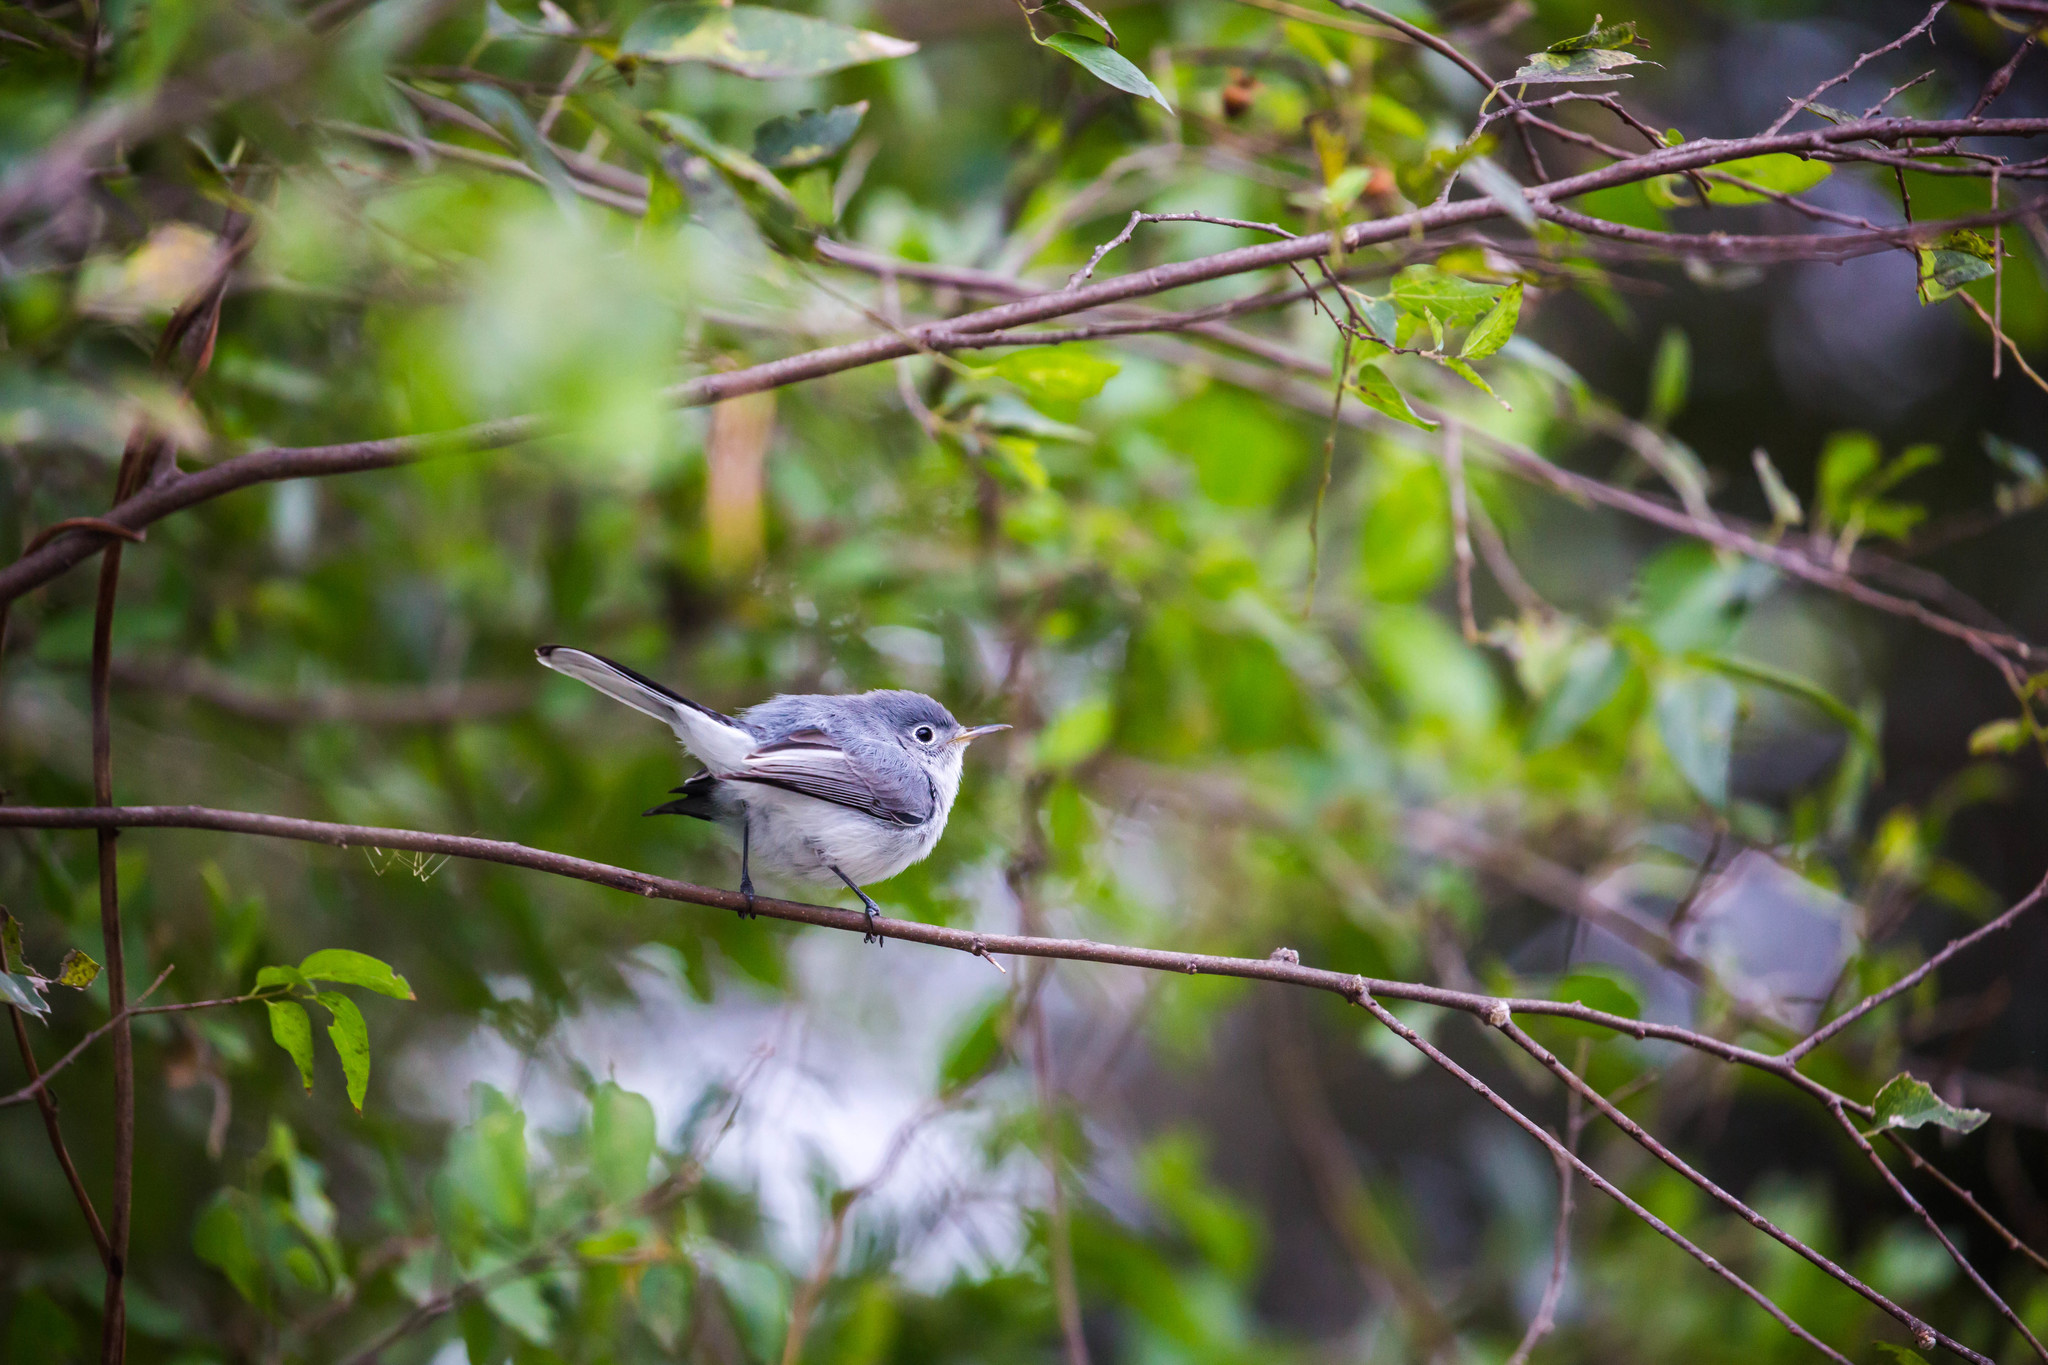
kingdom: Animalia
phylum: Chordata
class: Aves
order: Passeriformes
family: Polioptilidae
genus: Polioptila
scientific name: Polioptila caerulea
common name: Blue-gray gnatcatcher
